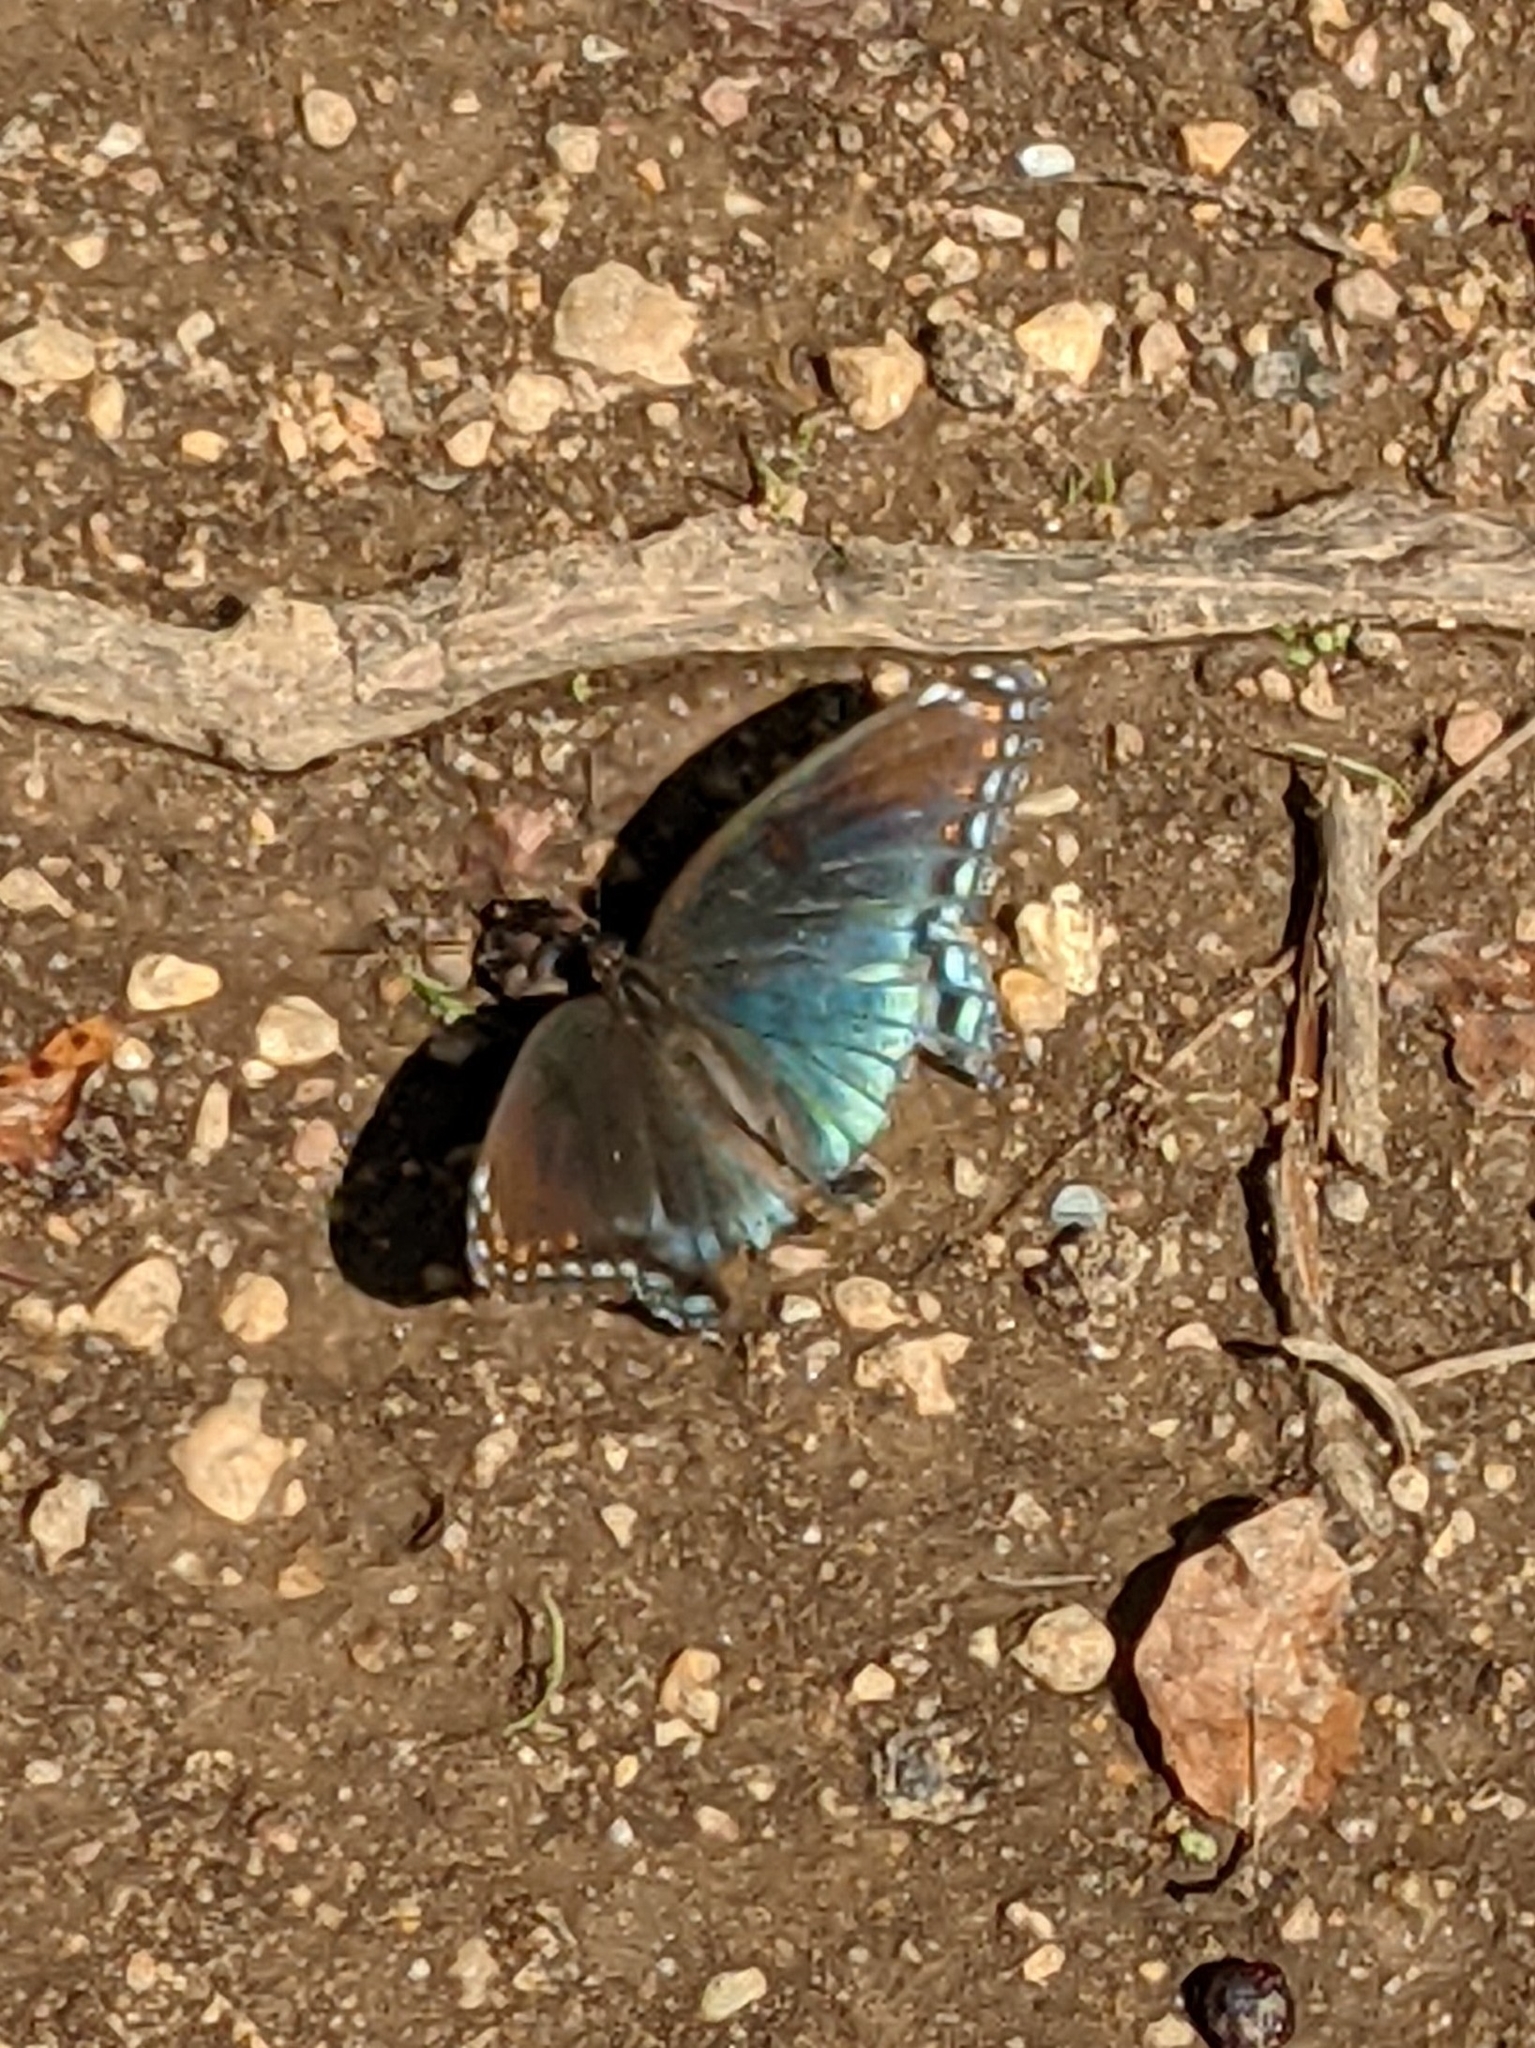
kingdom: Animalia
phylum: Arthropoda
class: Insecta
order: Lepidoptera
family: Nymphalidae
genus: Limenitis
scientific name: Limenitis astyanax
